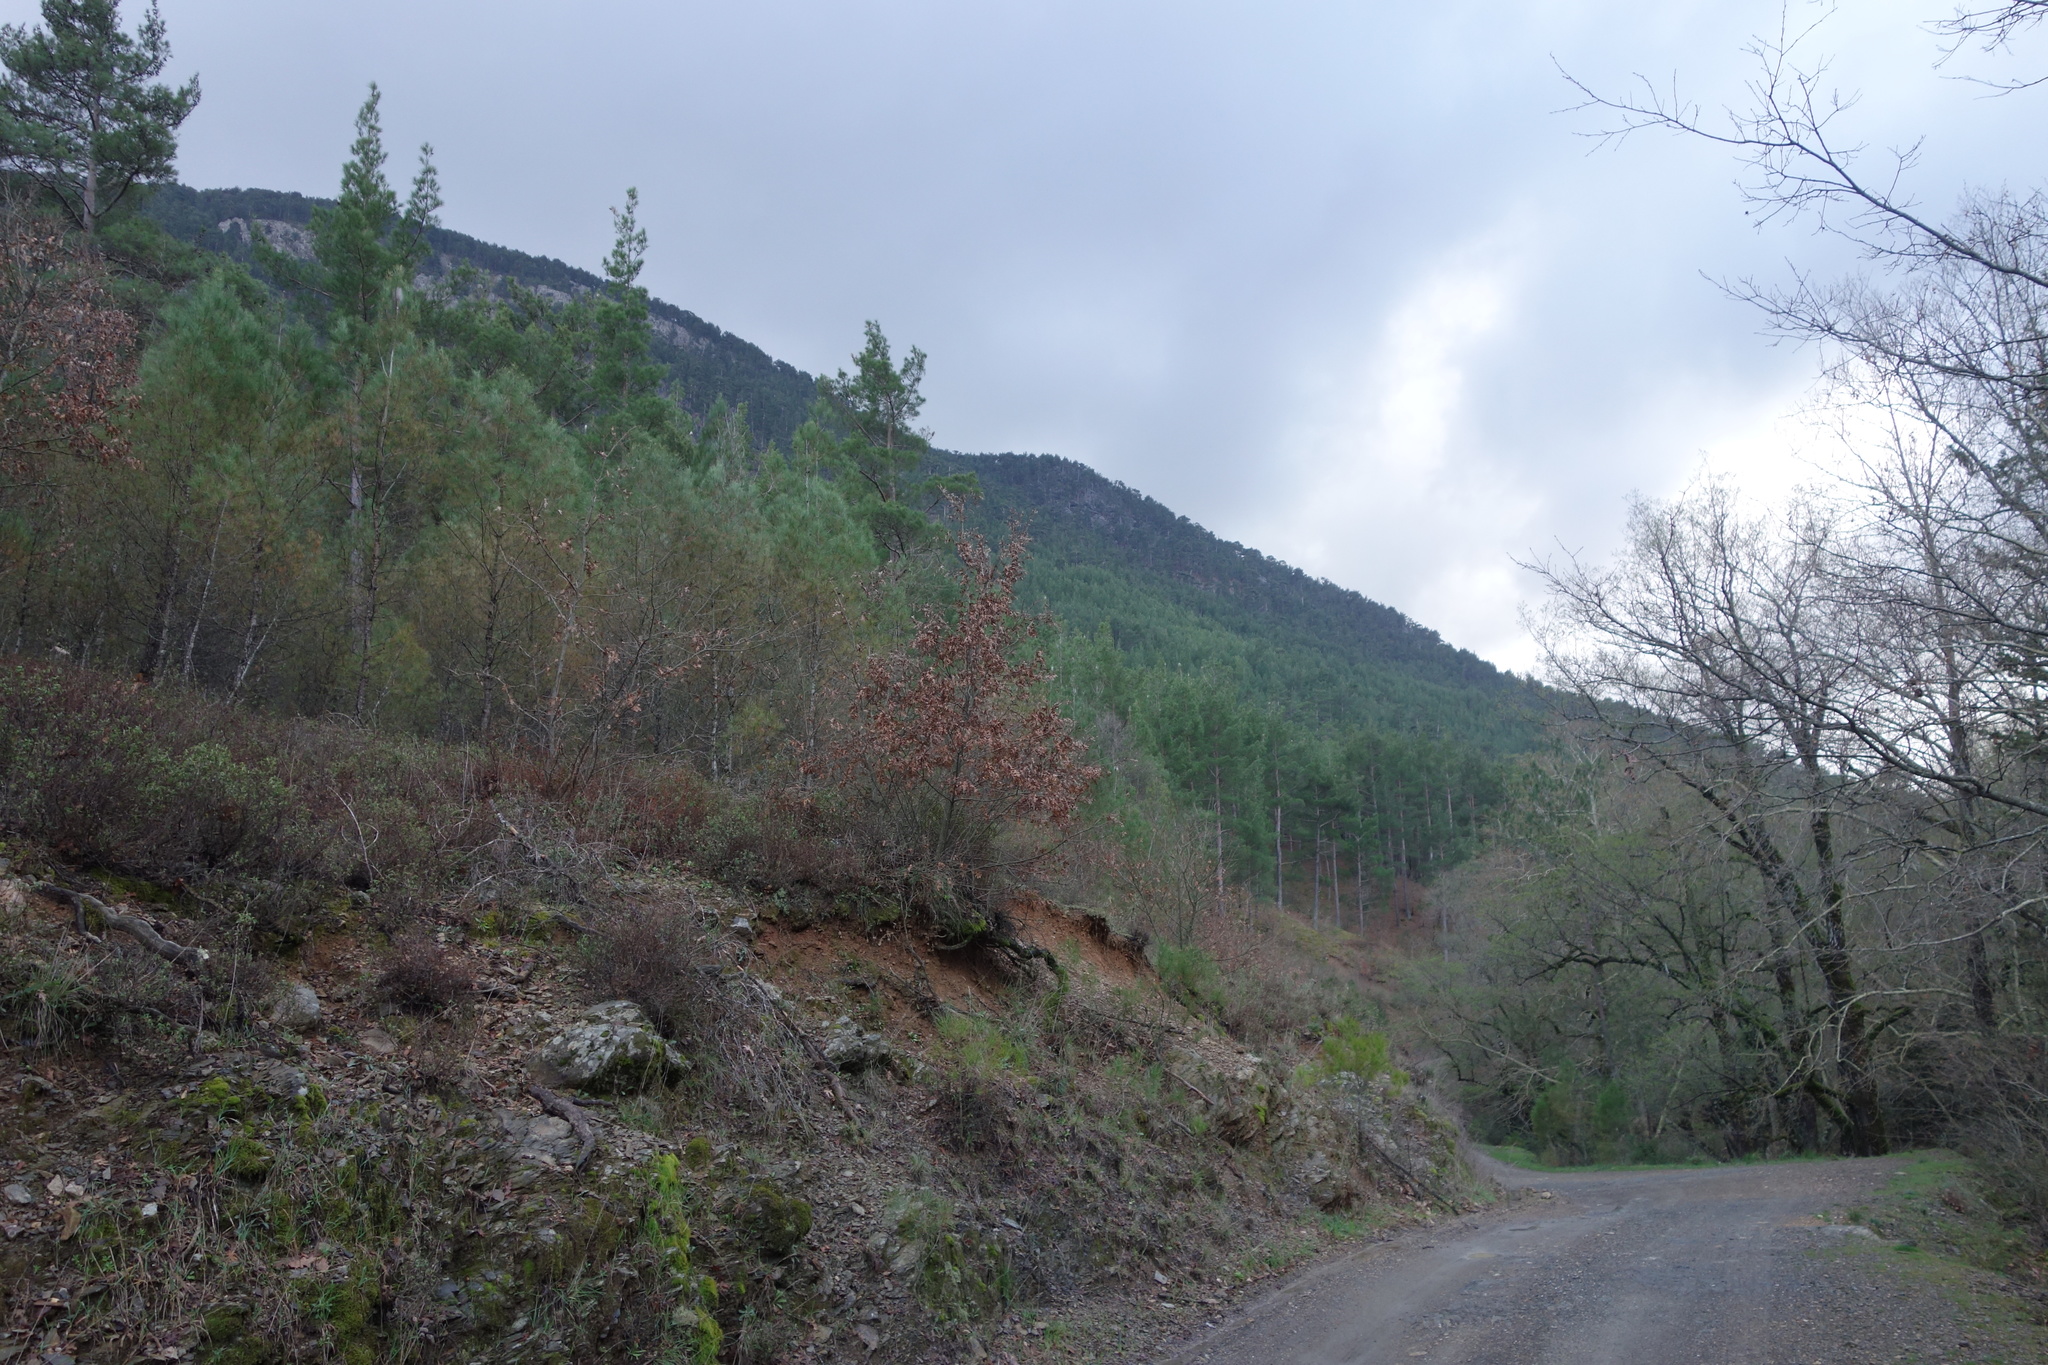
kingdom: Plantae
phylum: Tracheophyta
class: Pinopsida
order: Pinales
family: Pinaceae
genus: Pinus
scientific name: Pinus brutia
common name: Turkish pine
